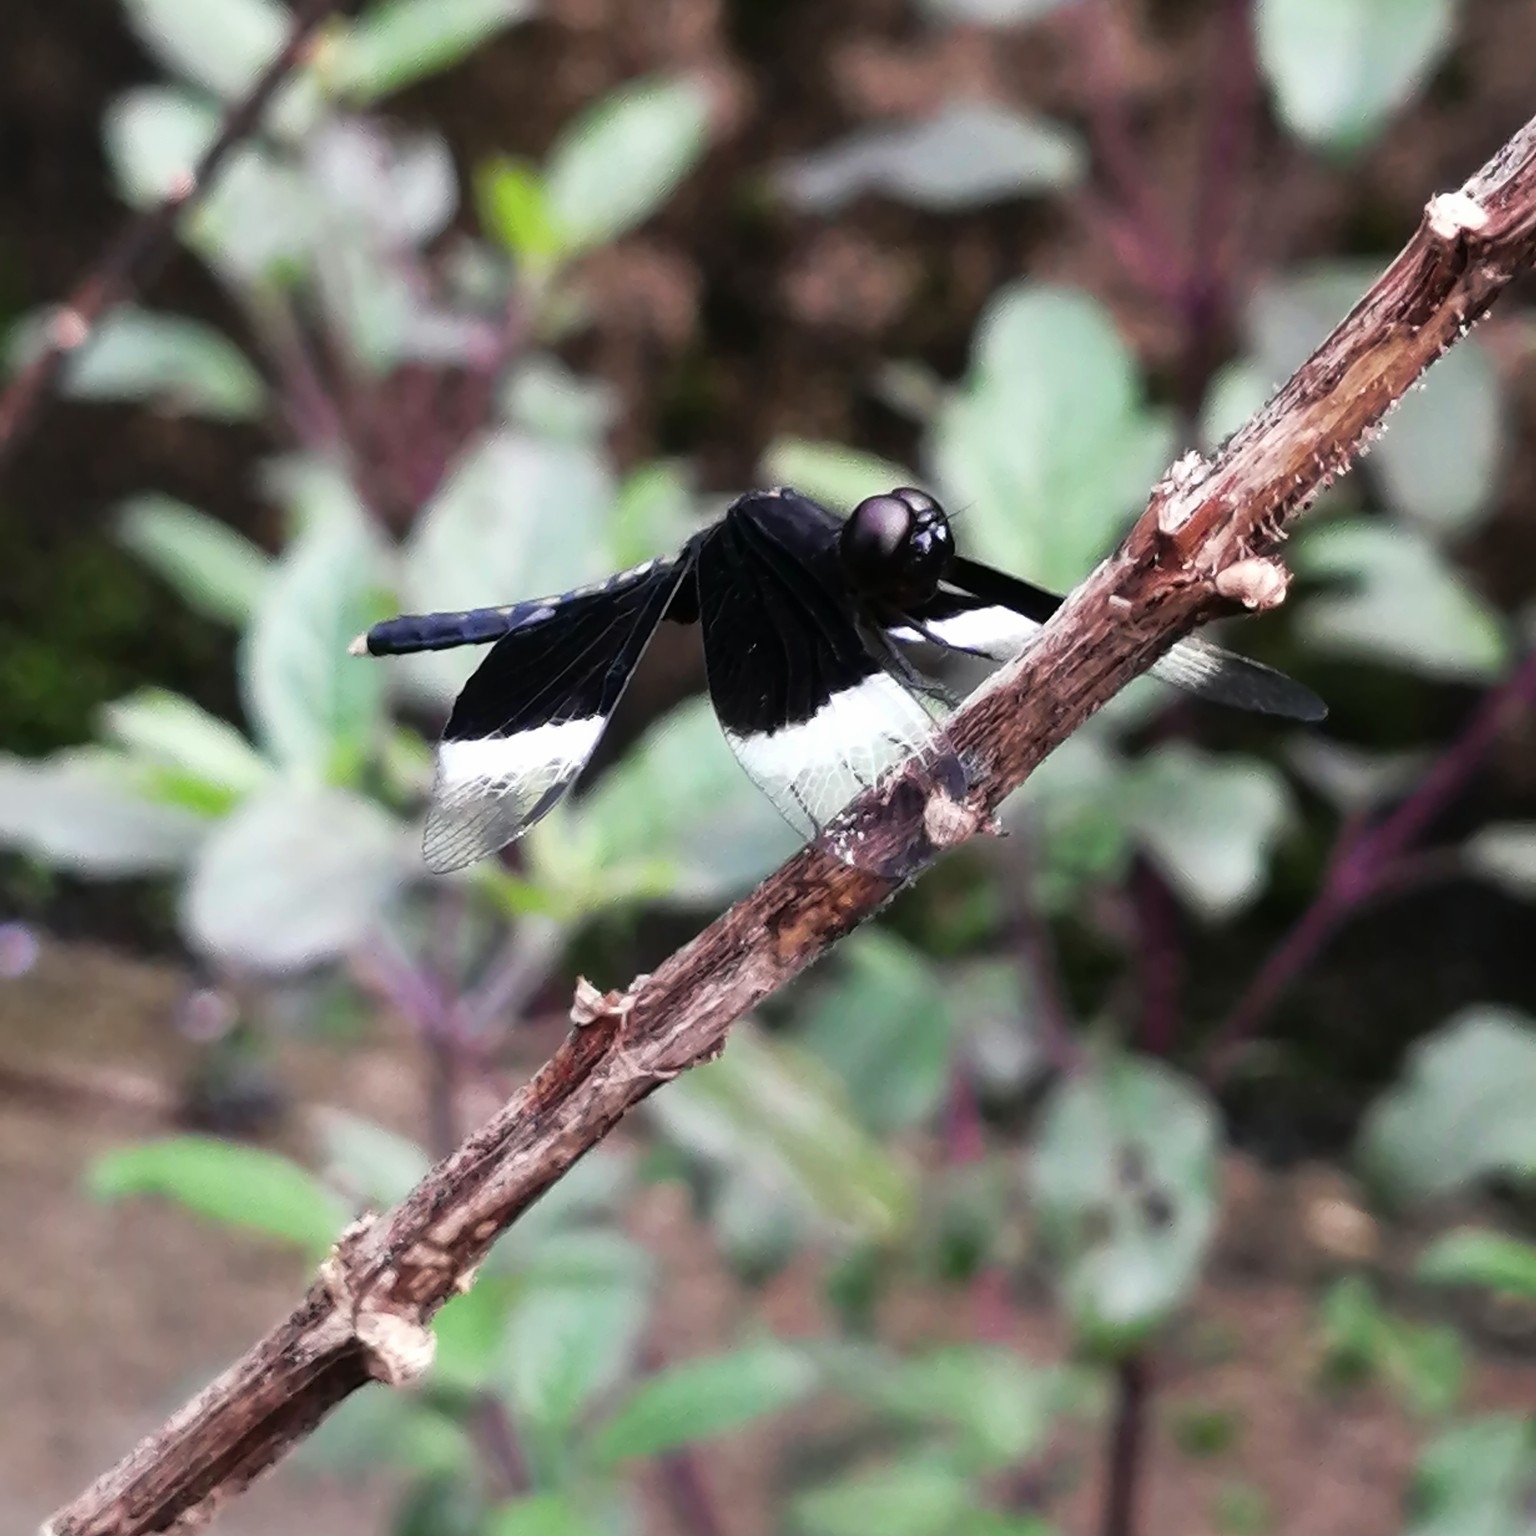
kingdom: Animalia
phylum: Arthropoda
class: Insecta
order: Odonata
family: Libellulidae
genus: Neurothemis
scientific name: Neurothemis tullia
